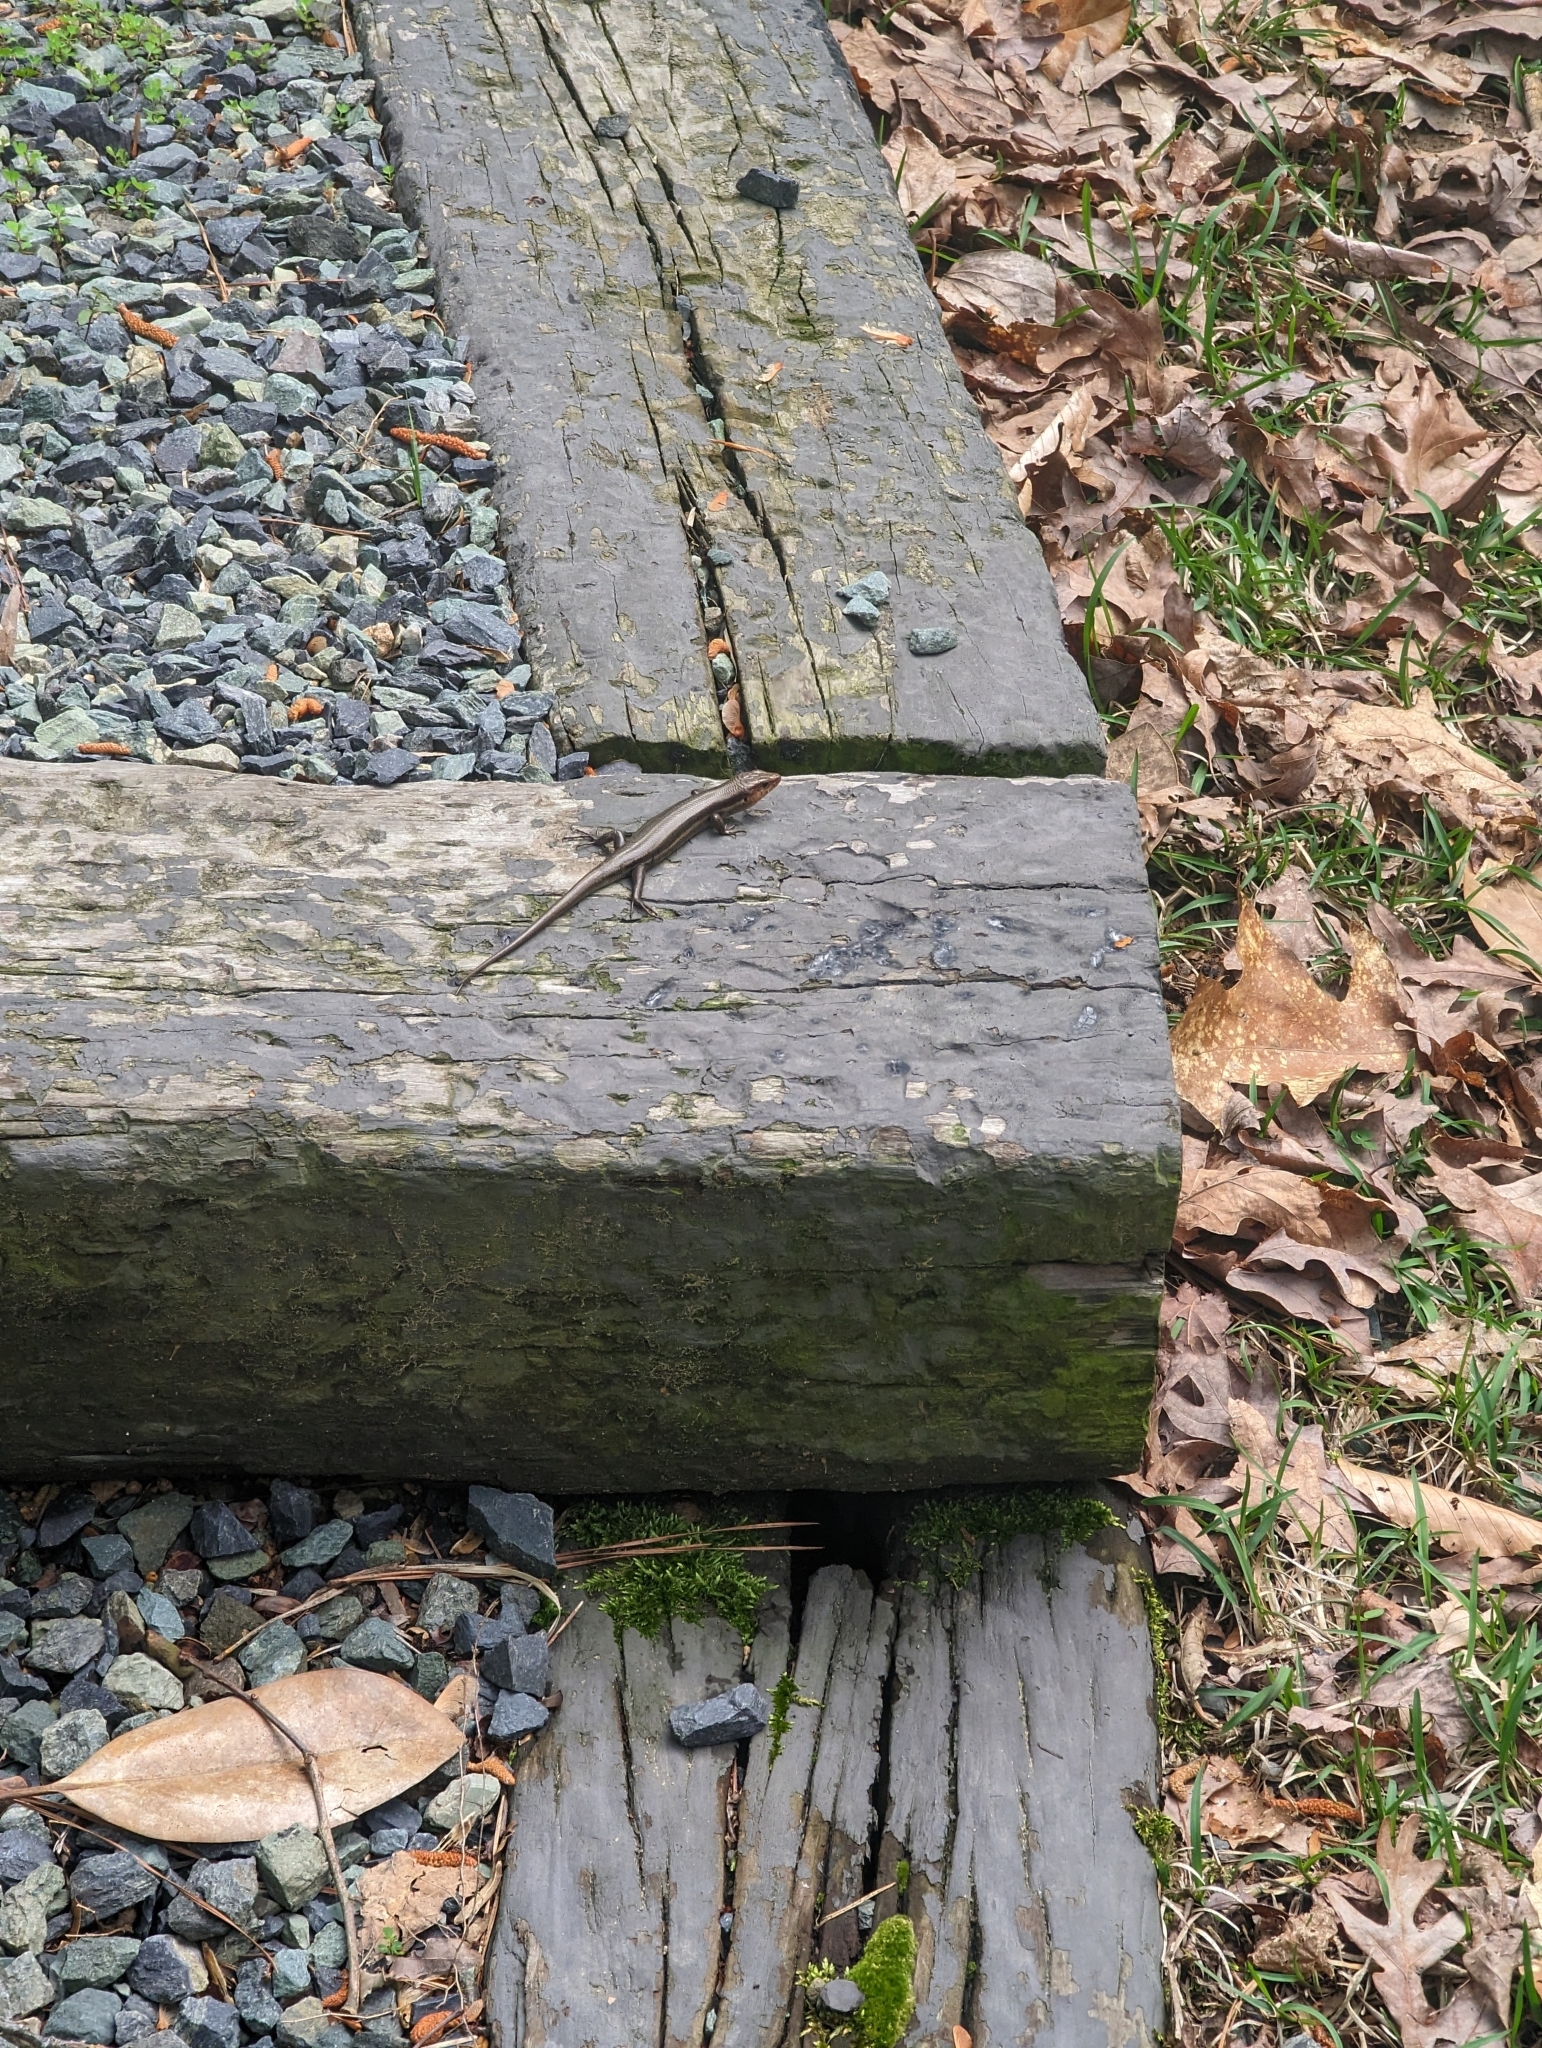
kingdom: Animalia
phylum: Chordata
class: Squamata
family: Scincidae
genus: Plestiodon
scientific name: Plestiodon fasciatus
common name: Five-lined skink
